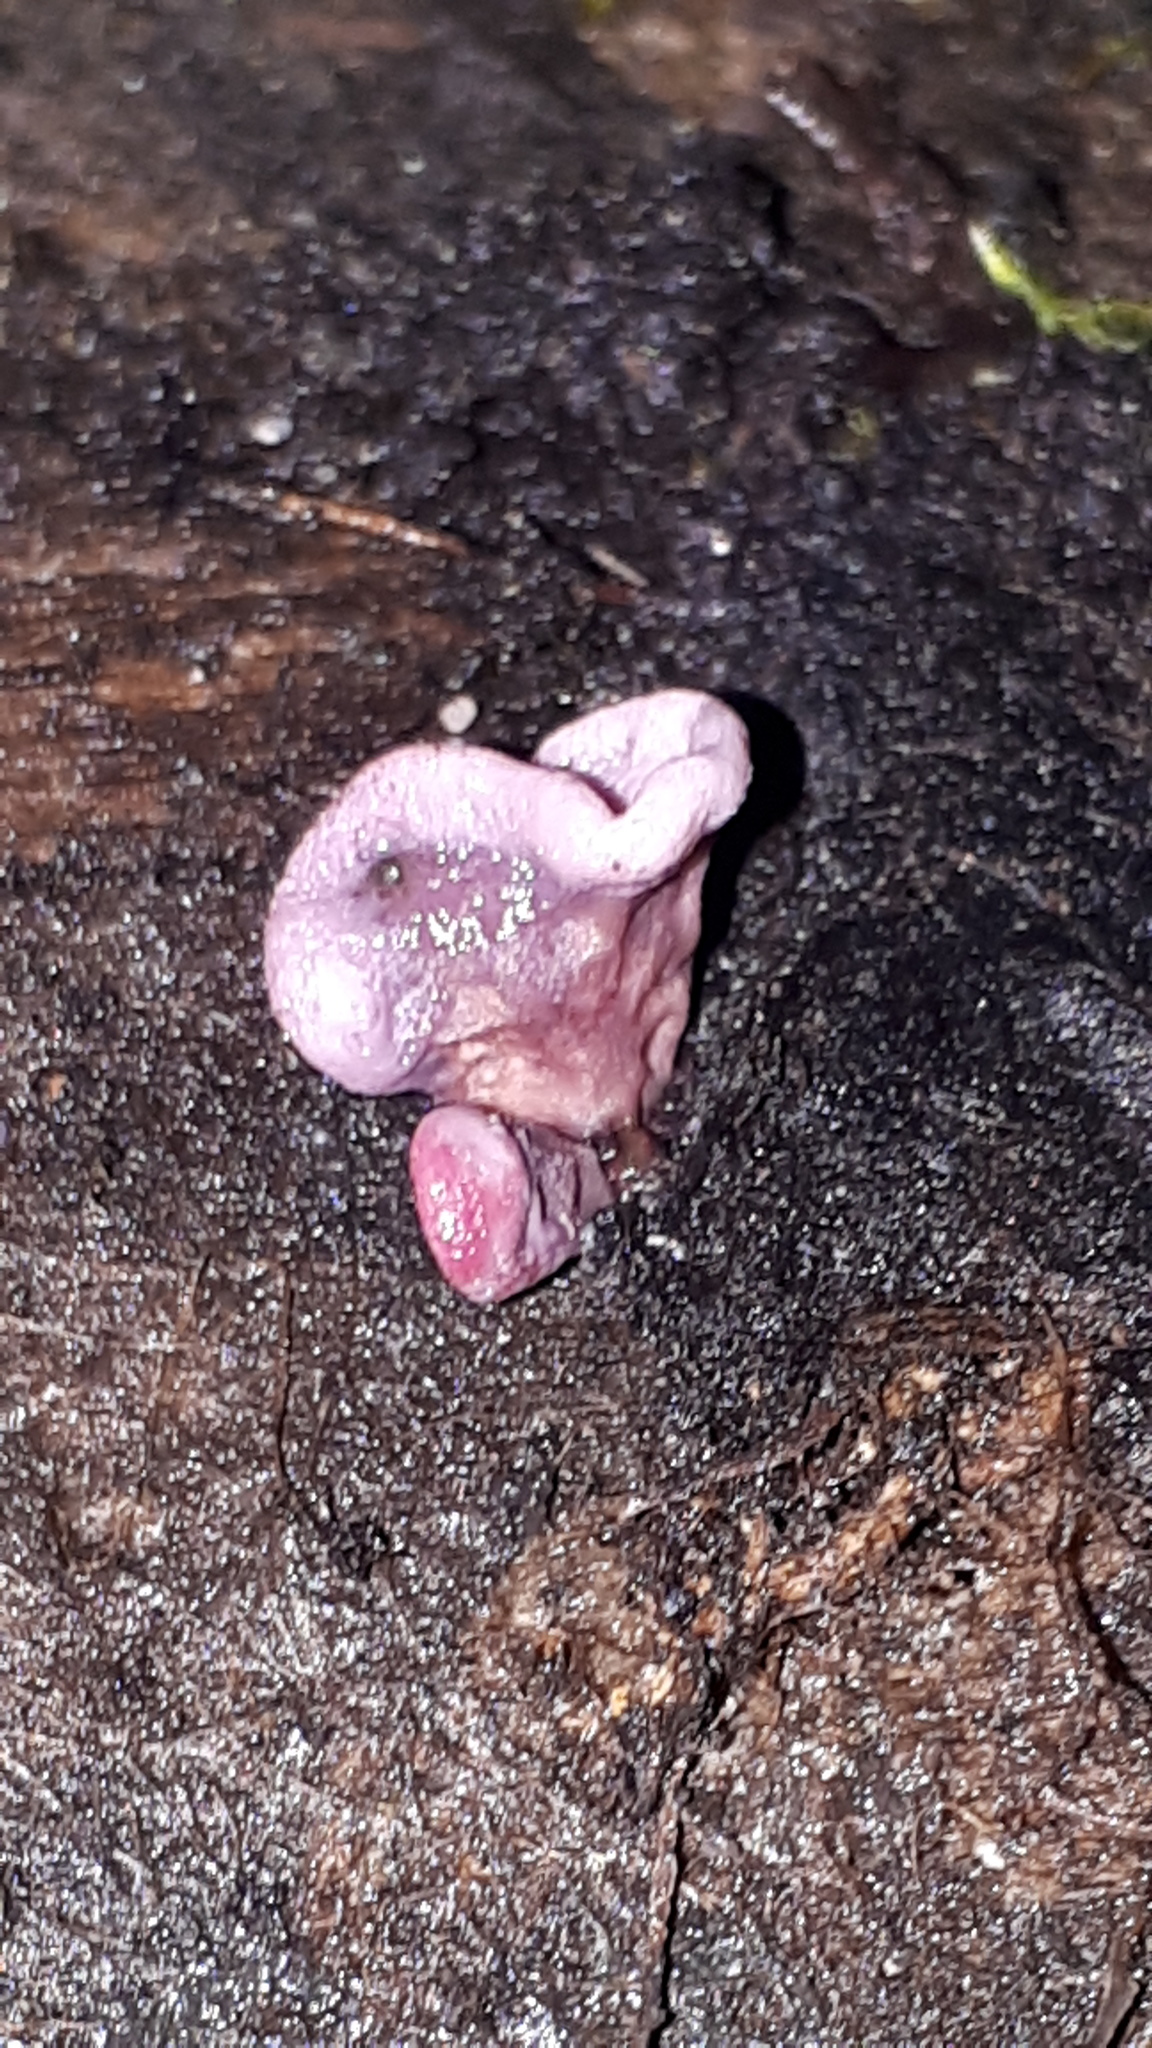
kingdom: Fungi
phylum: Ascomycota
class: Leotiomycetes
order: Helotiales
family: Gelatinodiscaceae
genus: Ascocoryne
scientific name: Ascocoryne sarcoides
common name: Purple jellydisc
